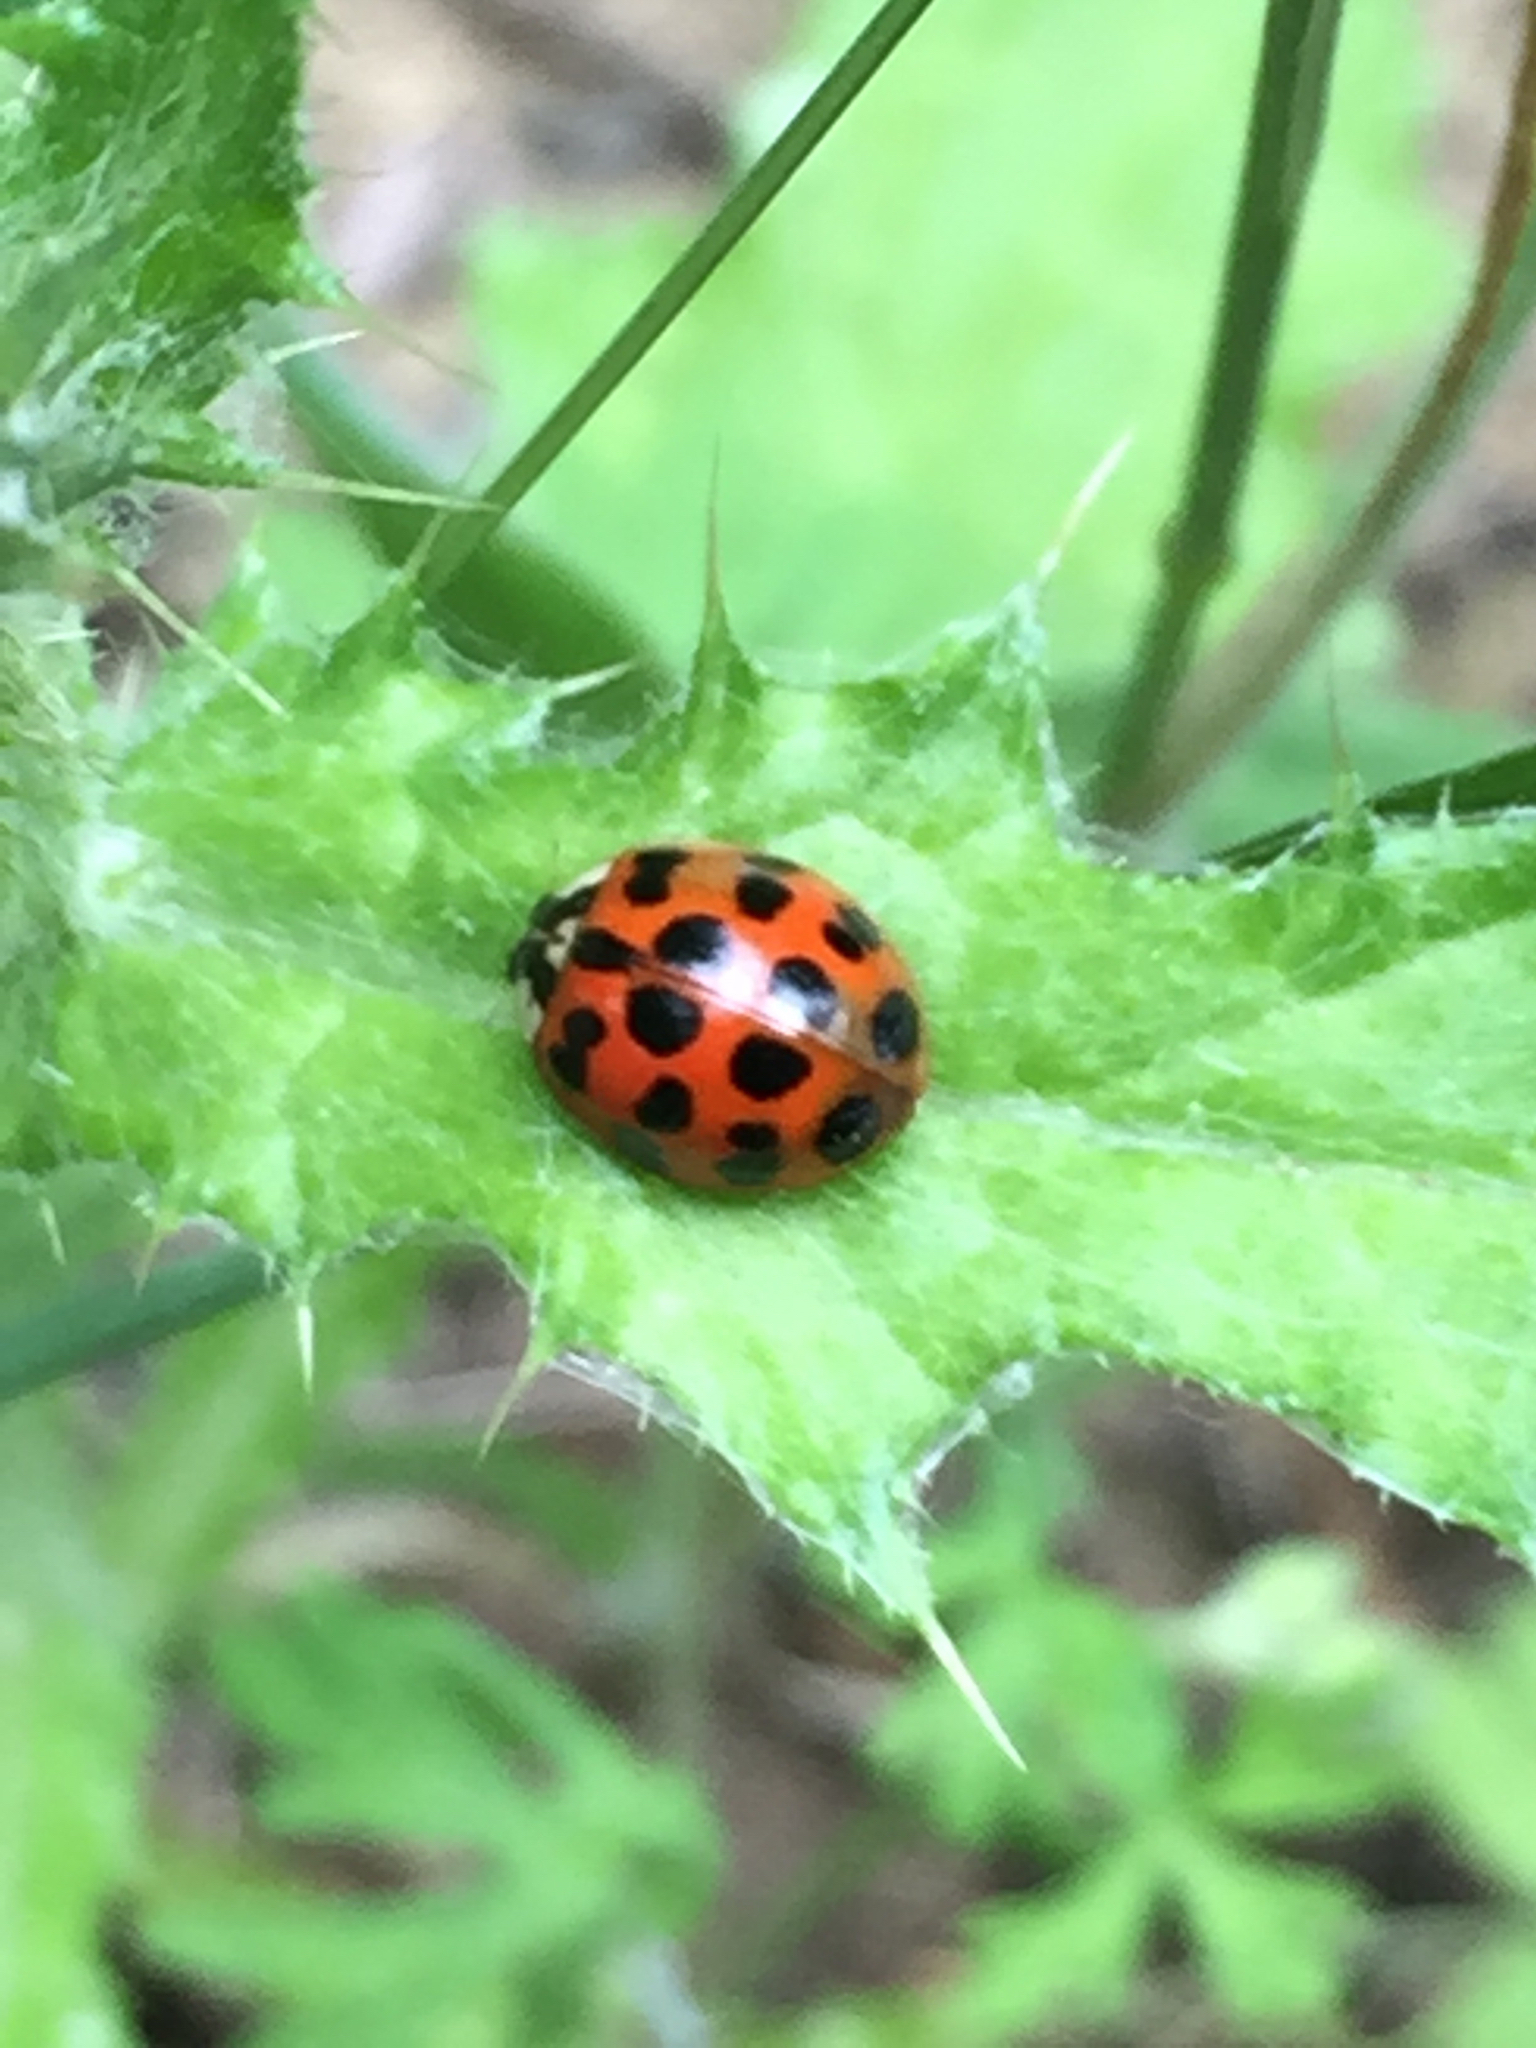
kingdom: Animalia
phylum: Arthropoda
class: Insecta
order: Coleoptera
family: Coccinellidae
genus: Harmonia
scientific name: Harmonia axyridis
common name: Harlequin ladybird
